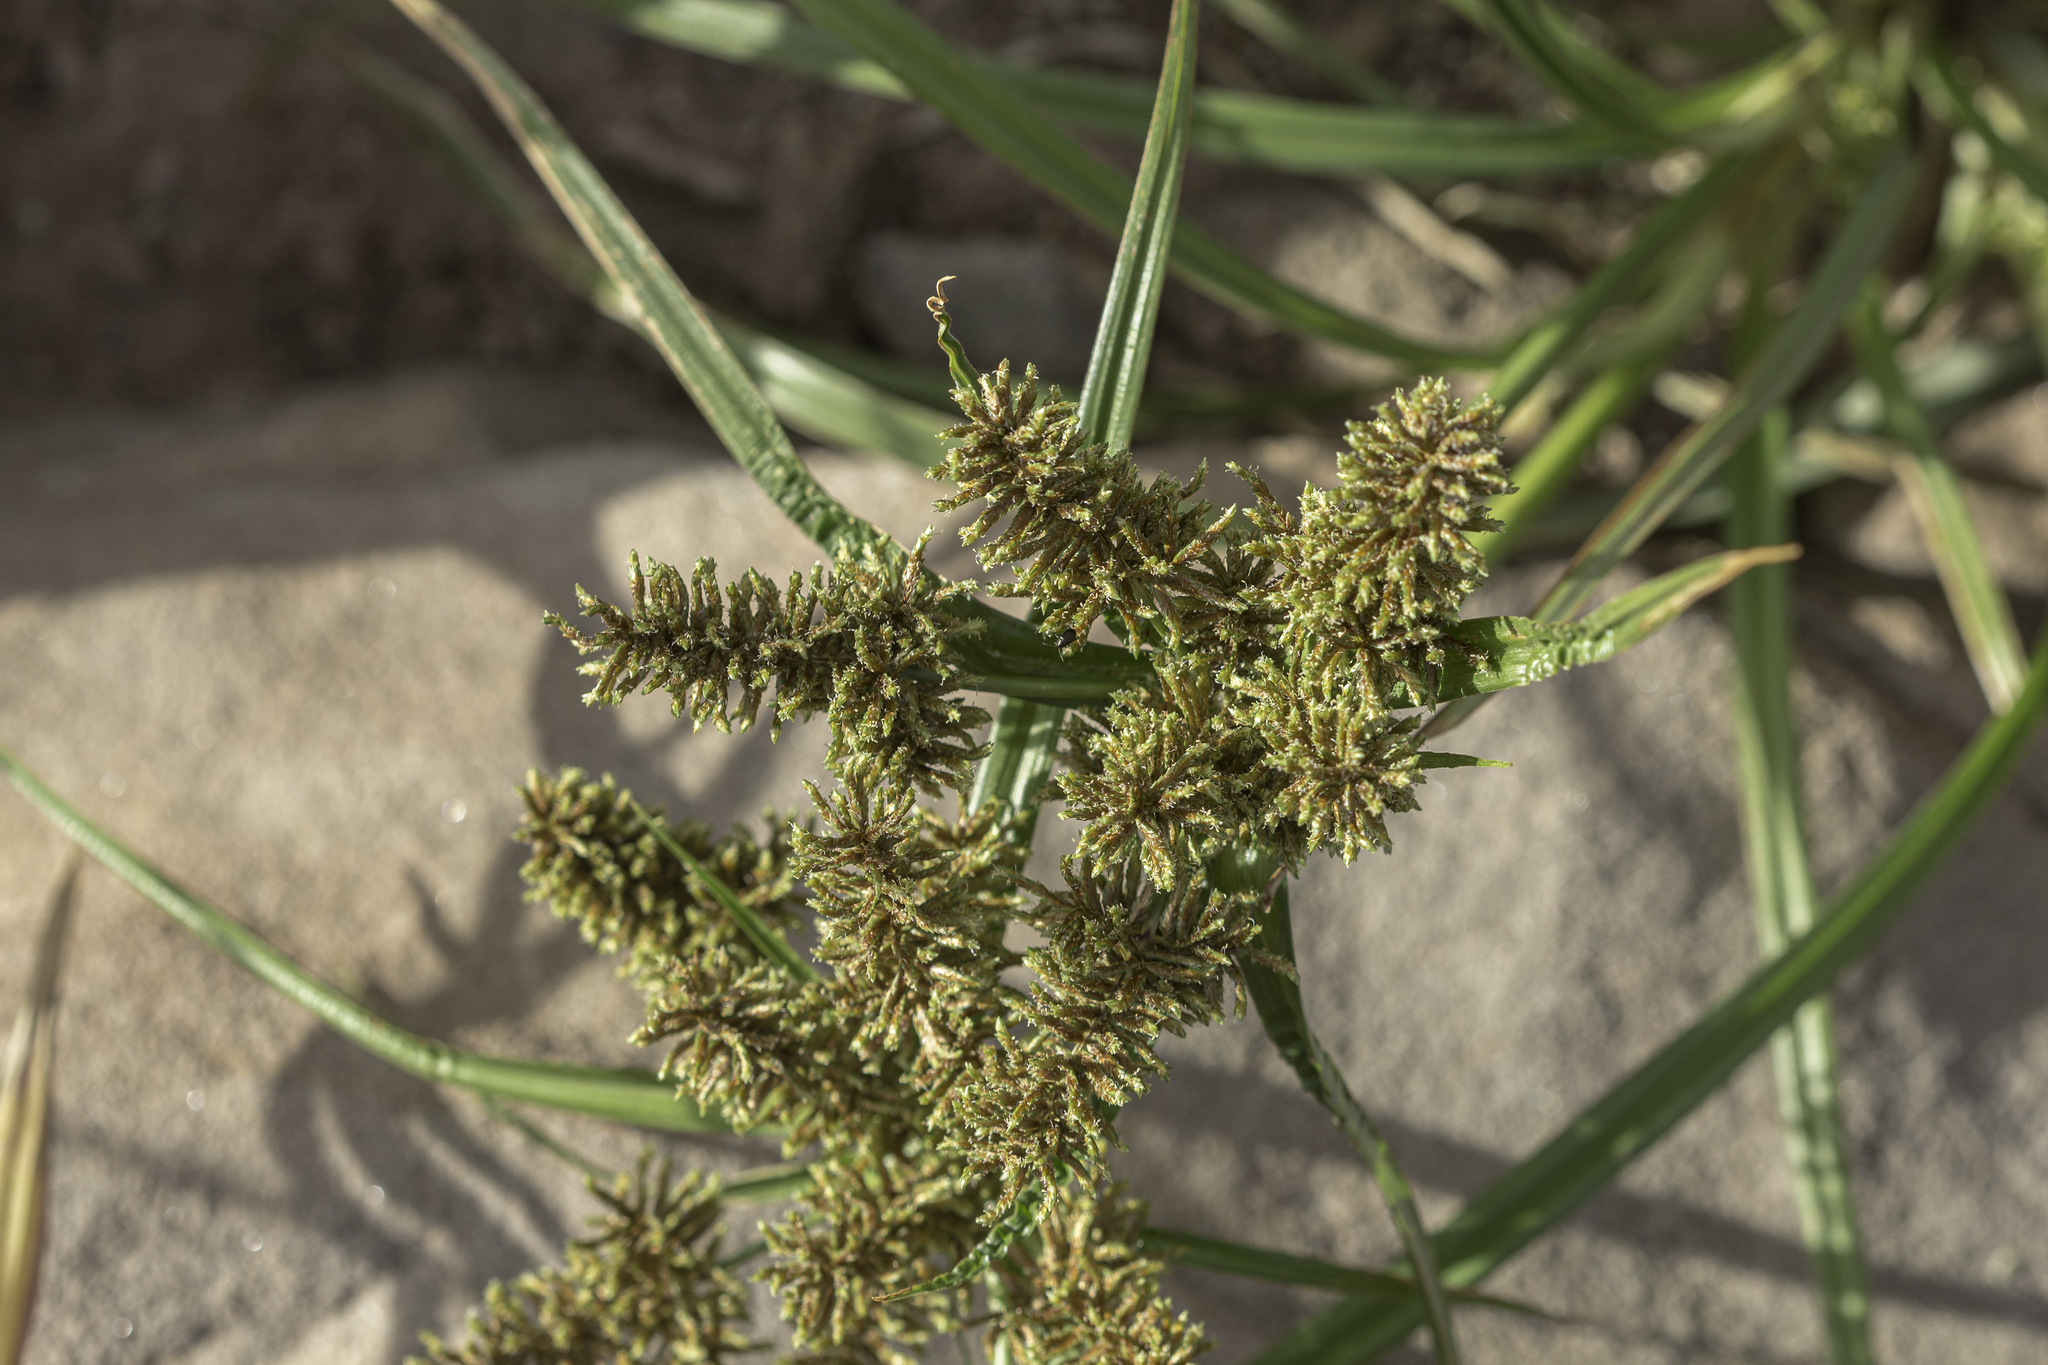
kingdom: Plantae
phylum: Tracheophyta
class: Liliopsida
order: Poales
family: Cyperaceae
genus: Cyperus
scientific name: Cyperus erythrorhizos
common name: Red-root flat sedge
